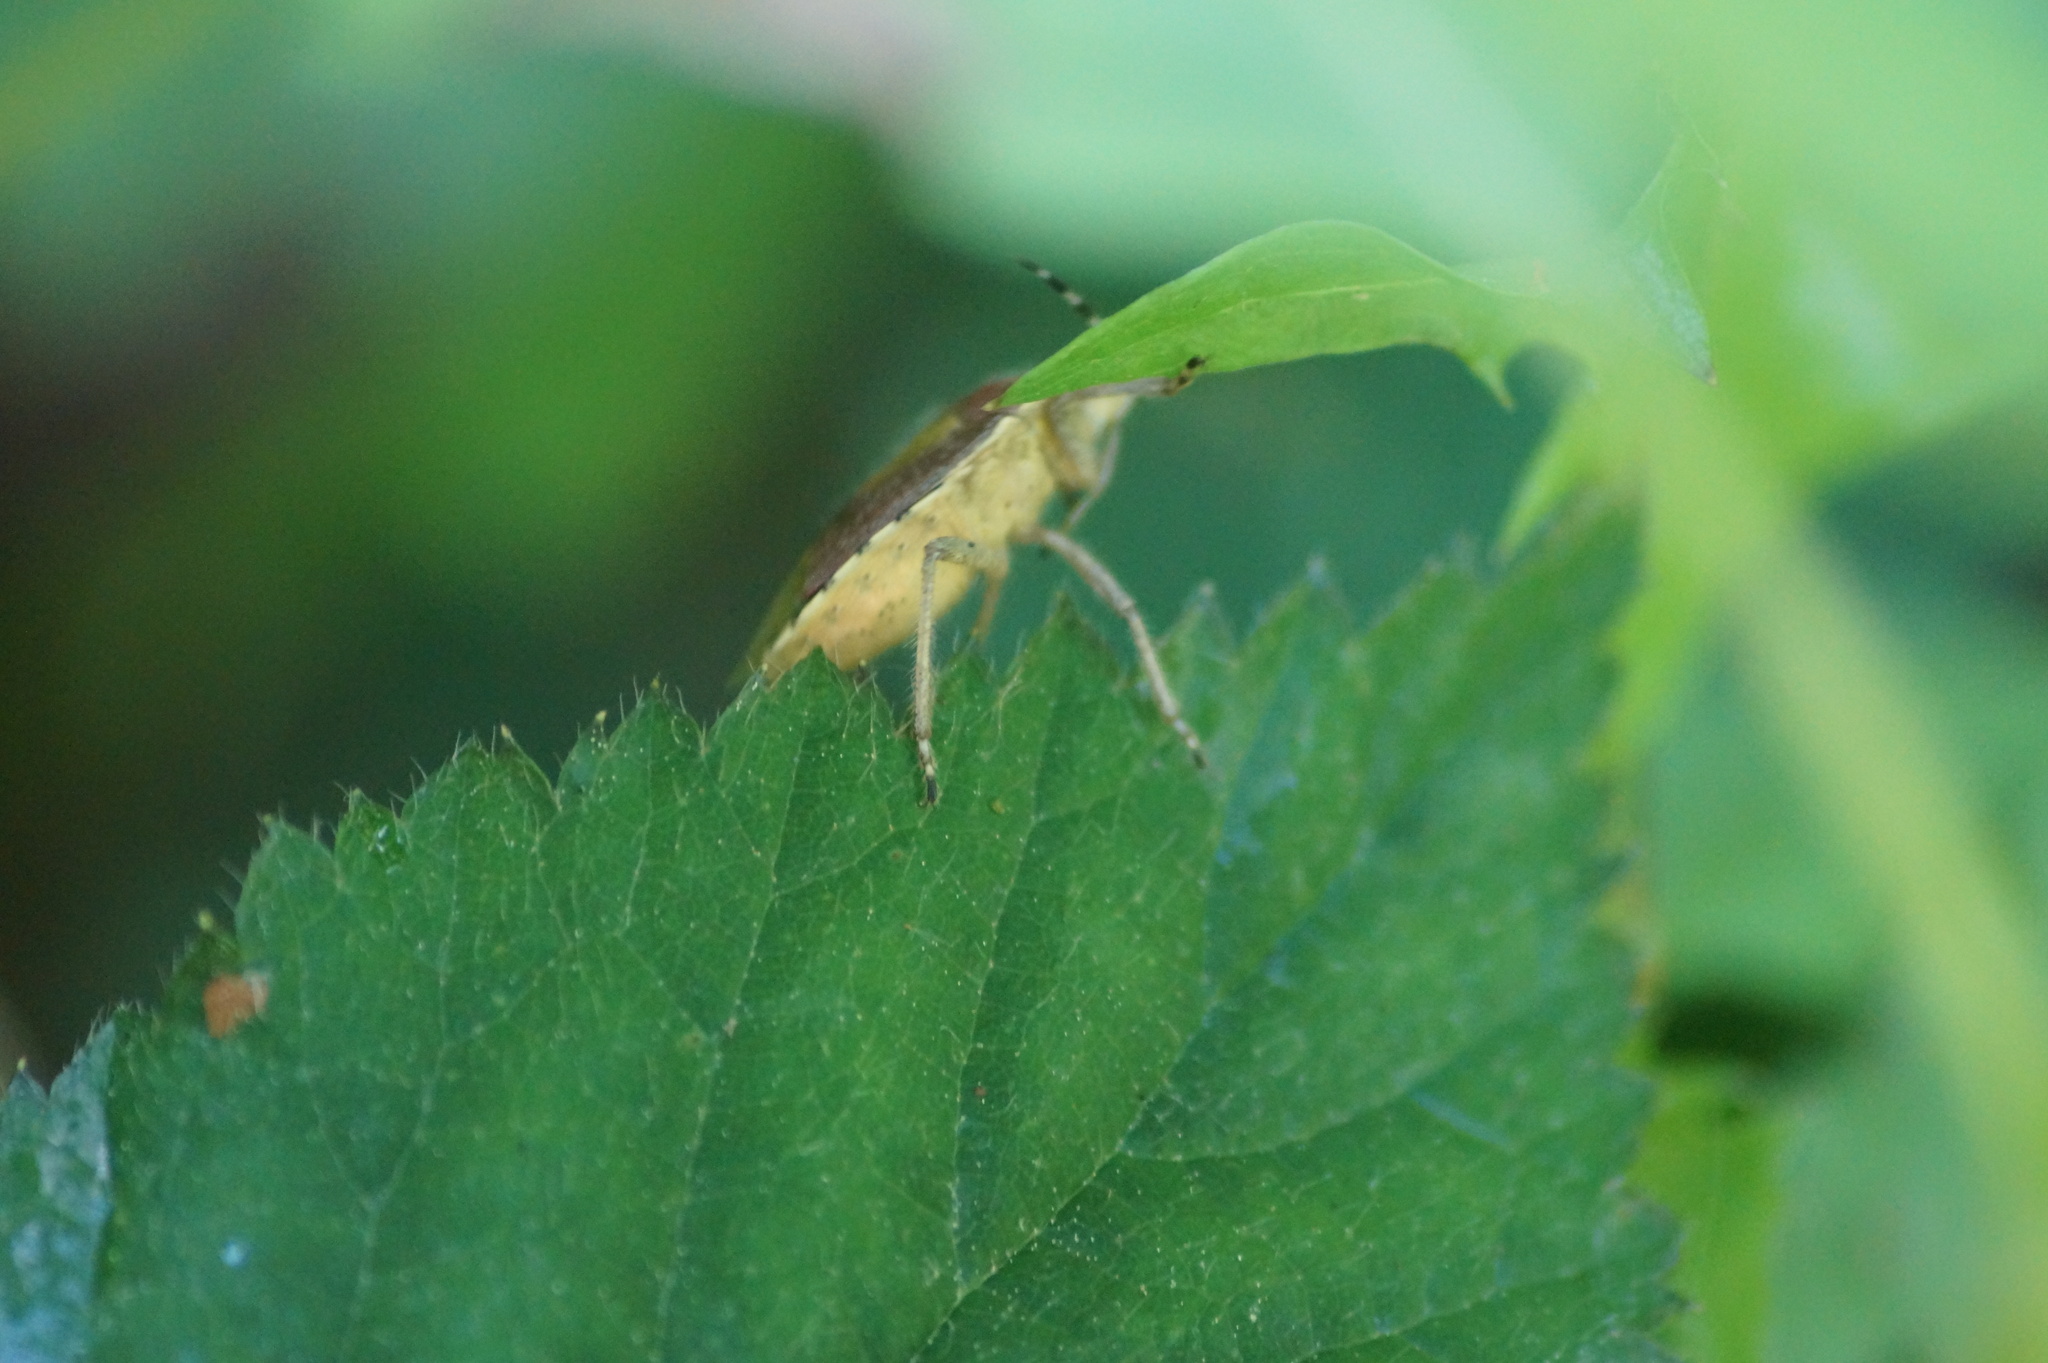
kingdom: Animalia
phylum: Arthropoda
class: Insecta
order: Hemiptera
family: Pentatomidae
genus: Dolycoris
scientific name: Dolycoris baccarum
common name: Sloe bug
